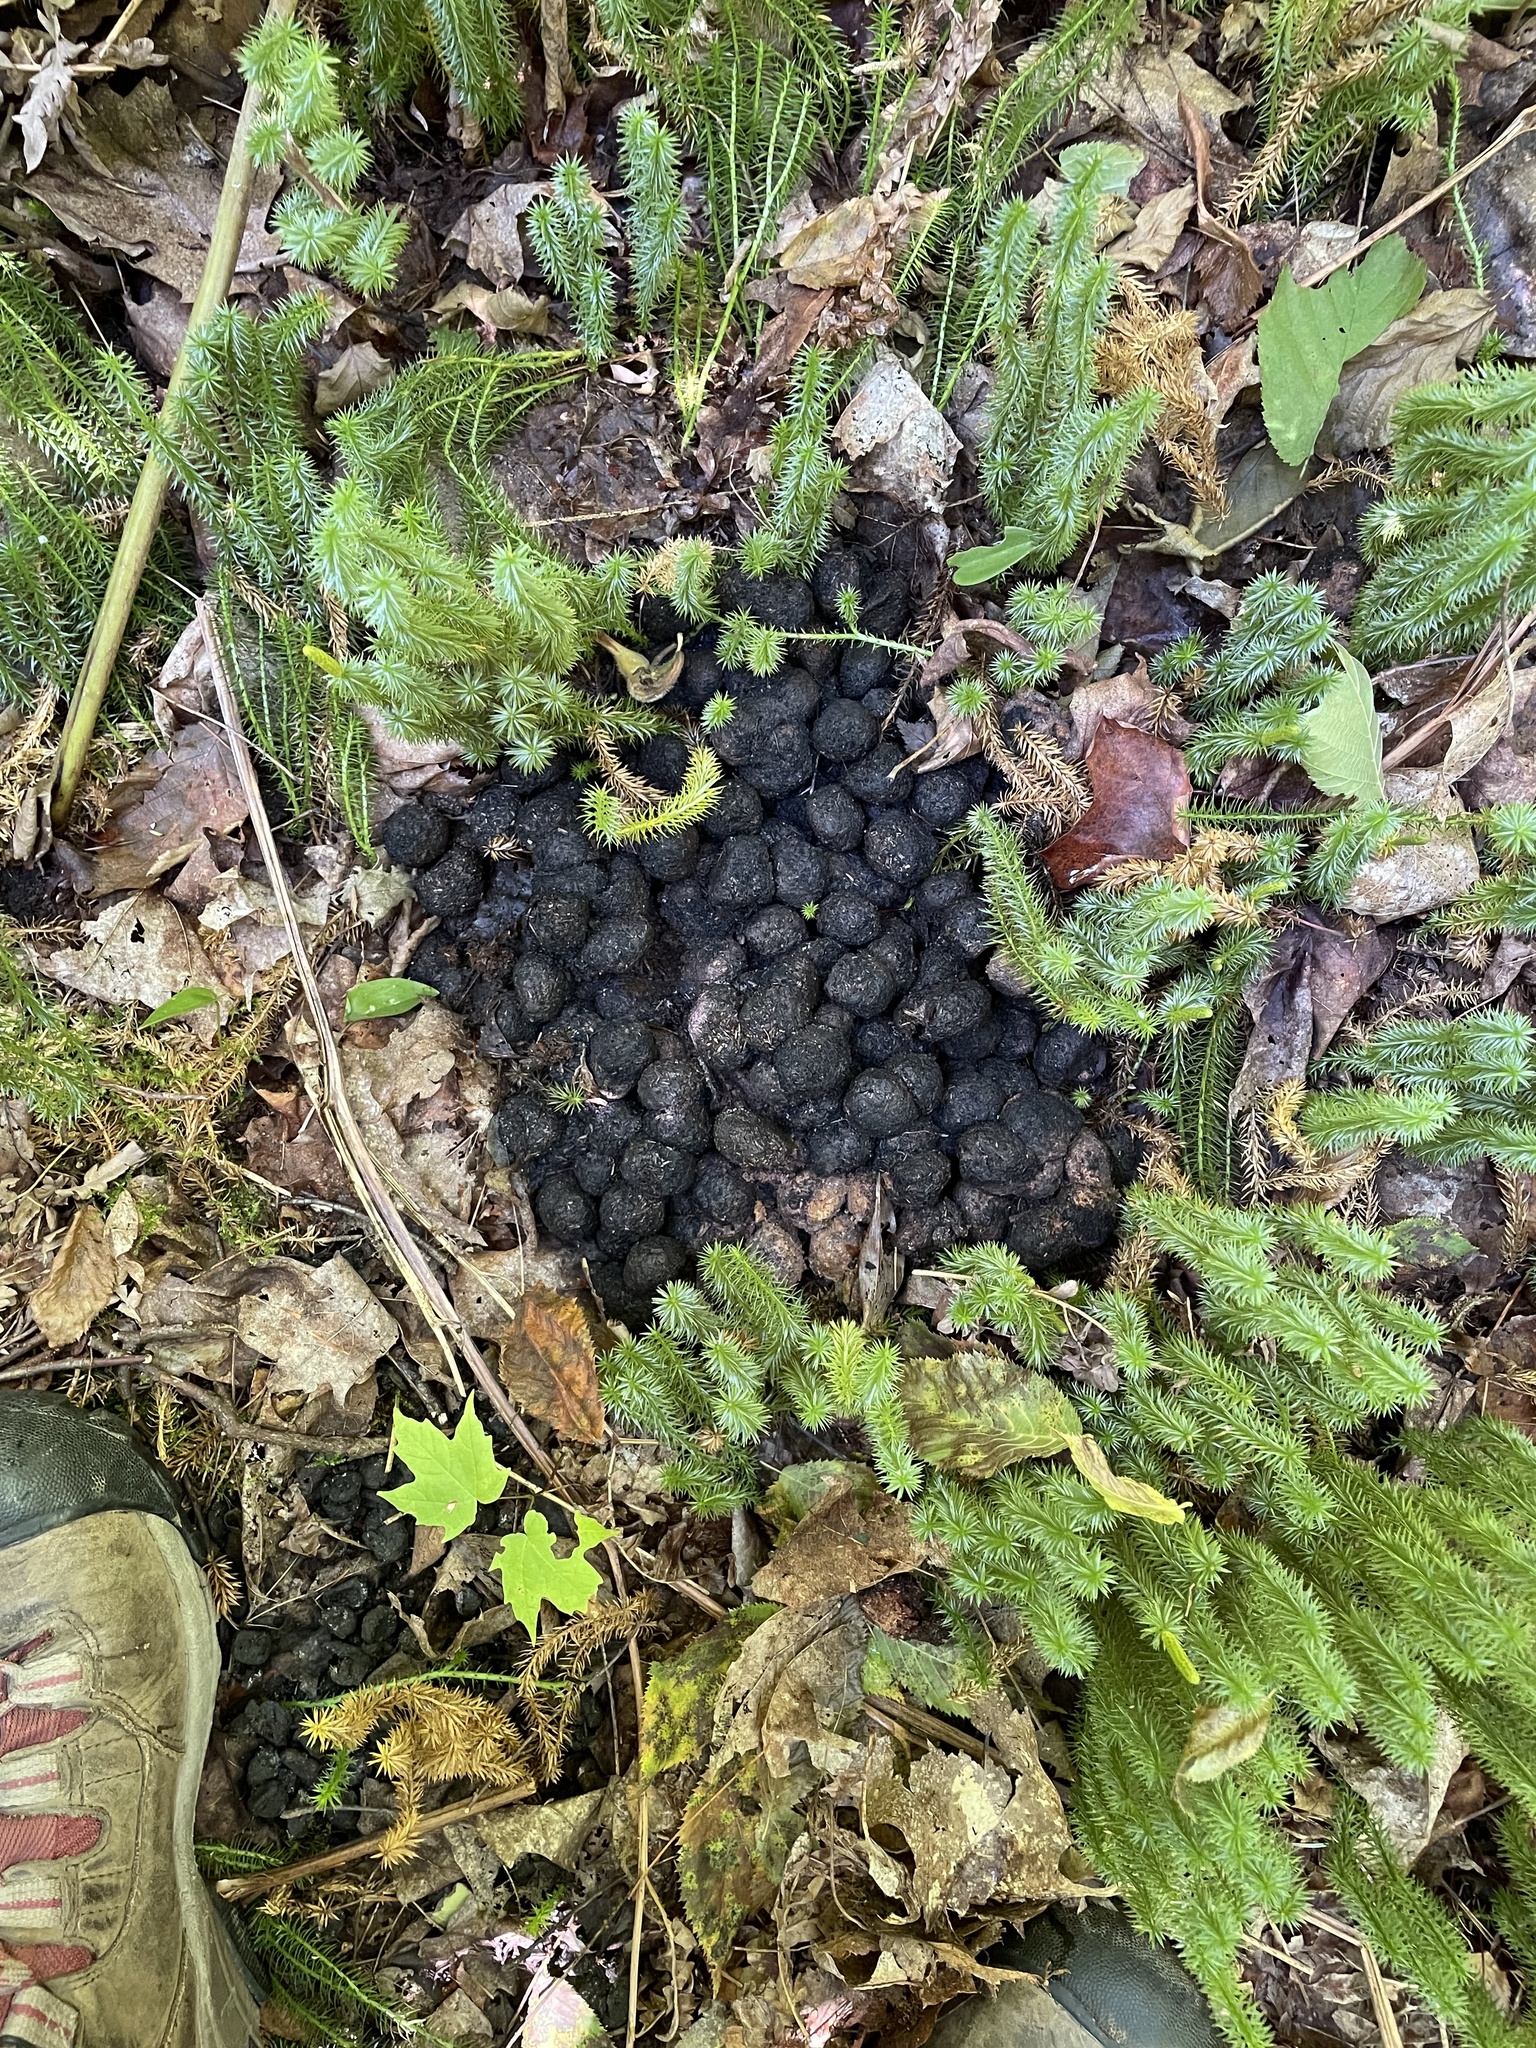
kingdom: Animalia
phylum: Chordata
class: Mammalia
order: Artiodactyla
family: Cervidae
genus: Alces
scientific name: Alces alces
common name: Moose
